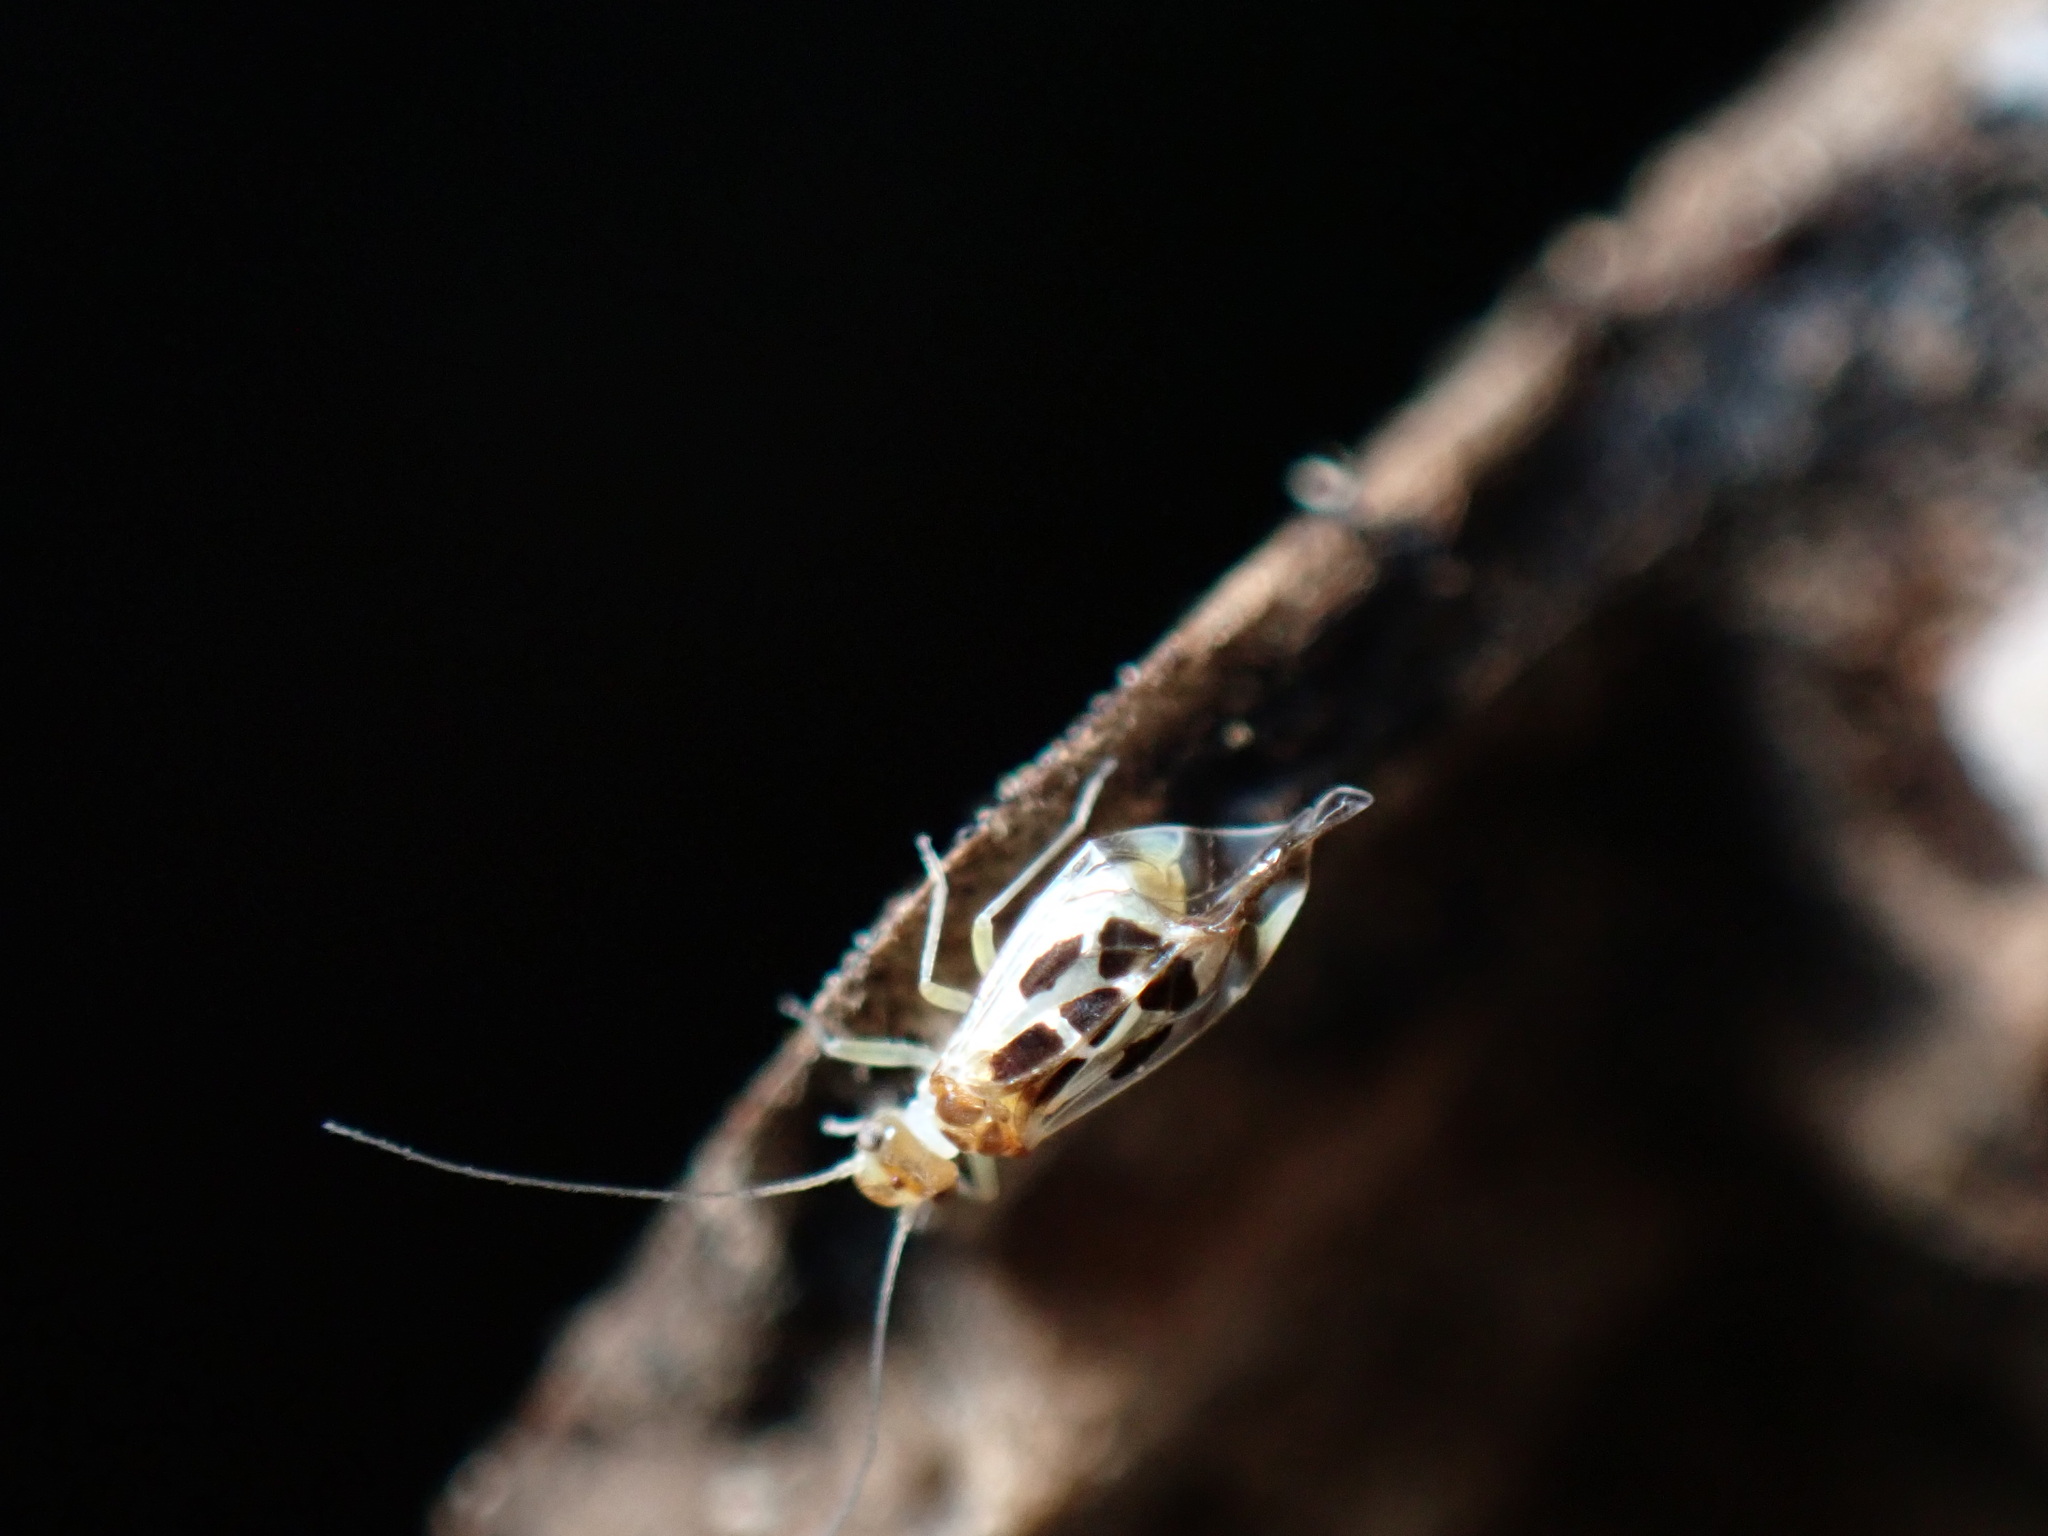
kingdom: Animalia
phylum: Arthropoda
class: Insecta
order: Psocodea
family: Stenopsocidae
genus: Graphopsocus
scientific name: Graphopsocus cruciatus
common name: Lizard bark louse
